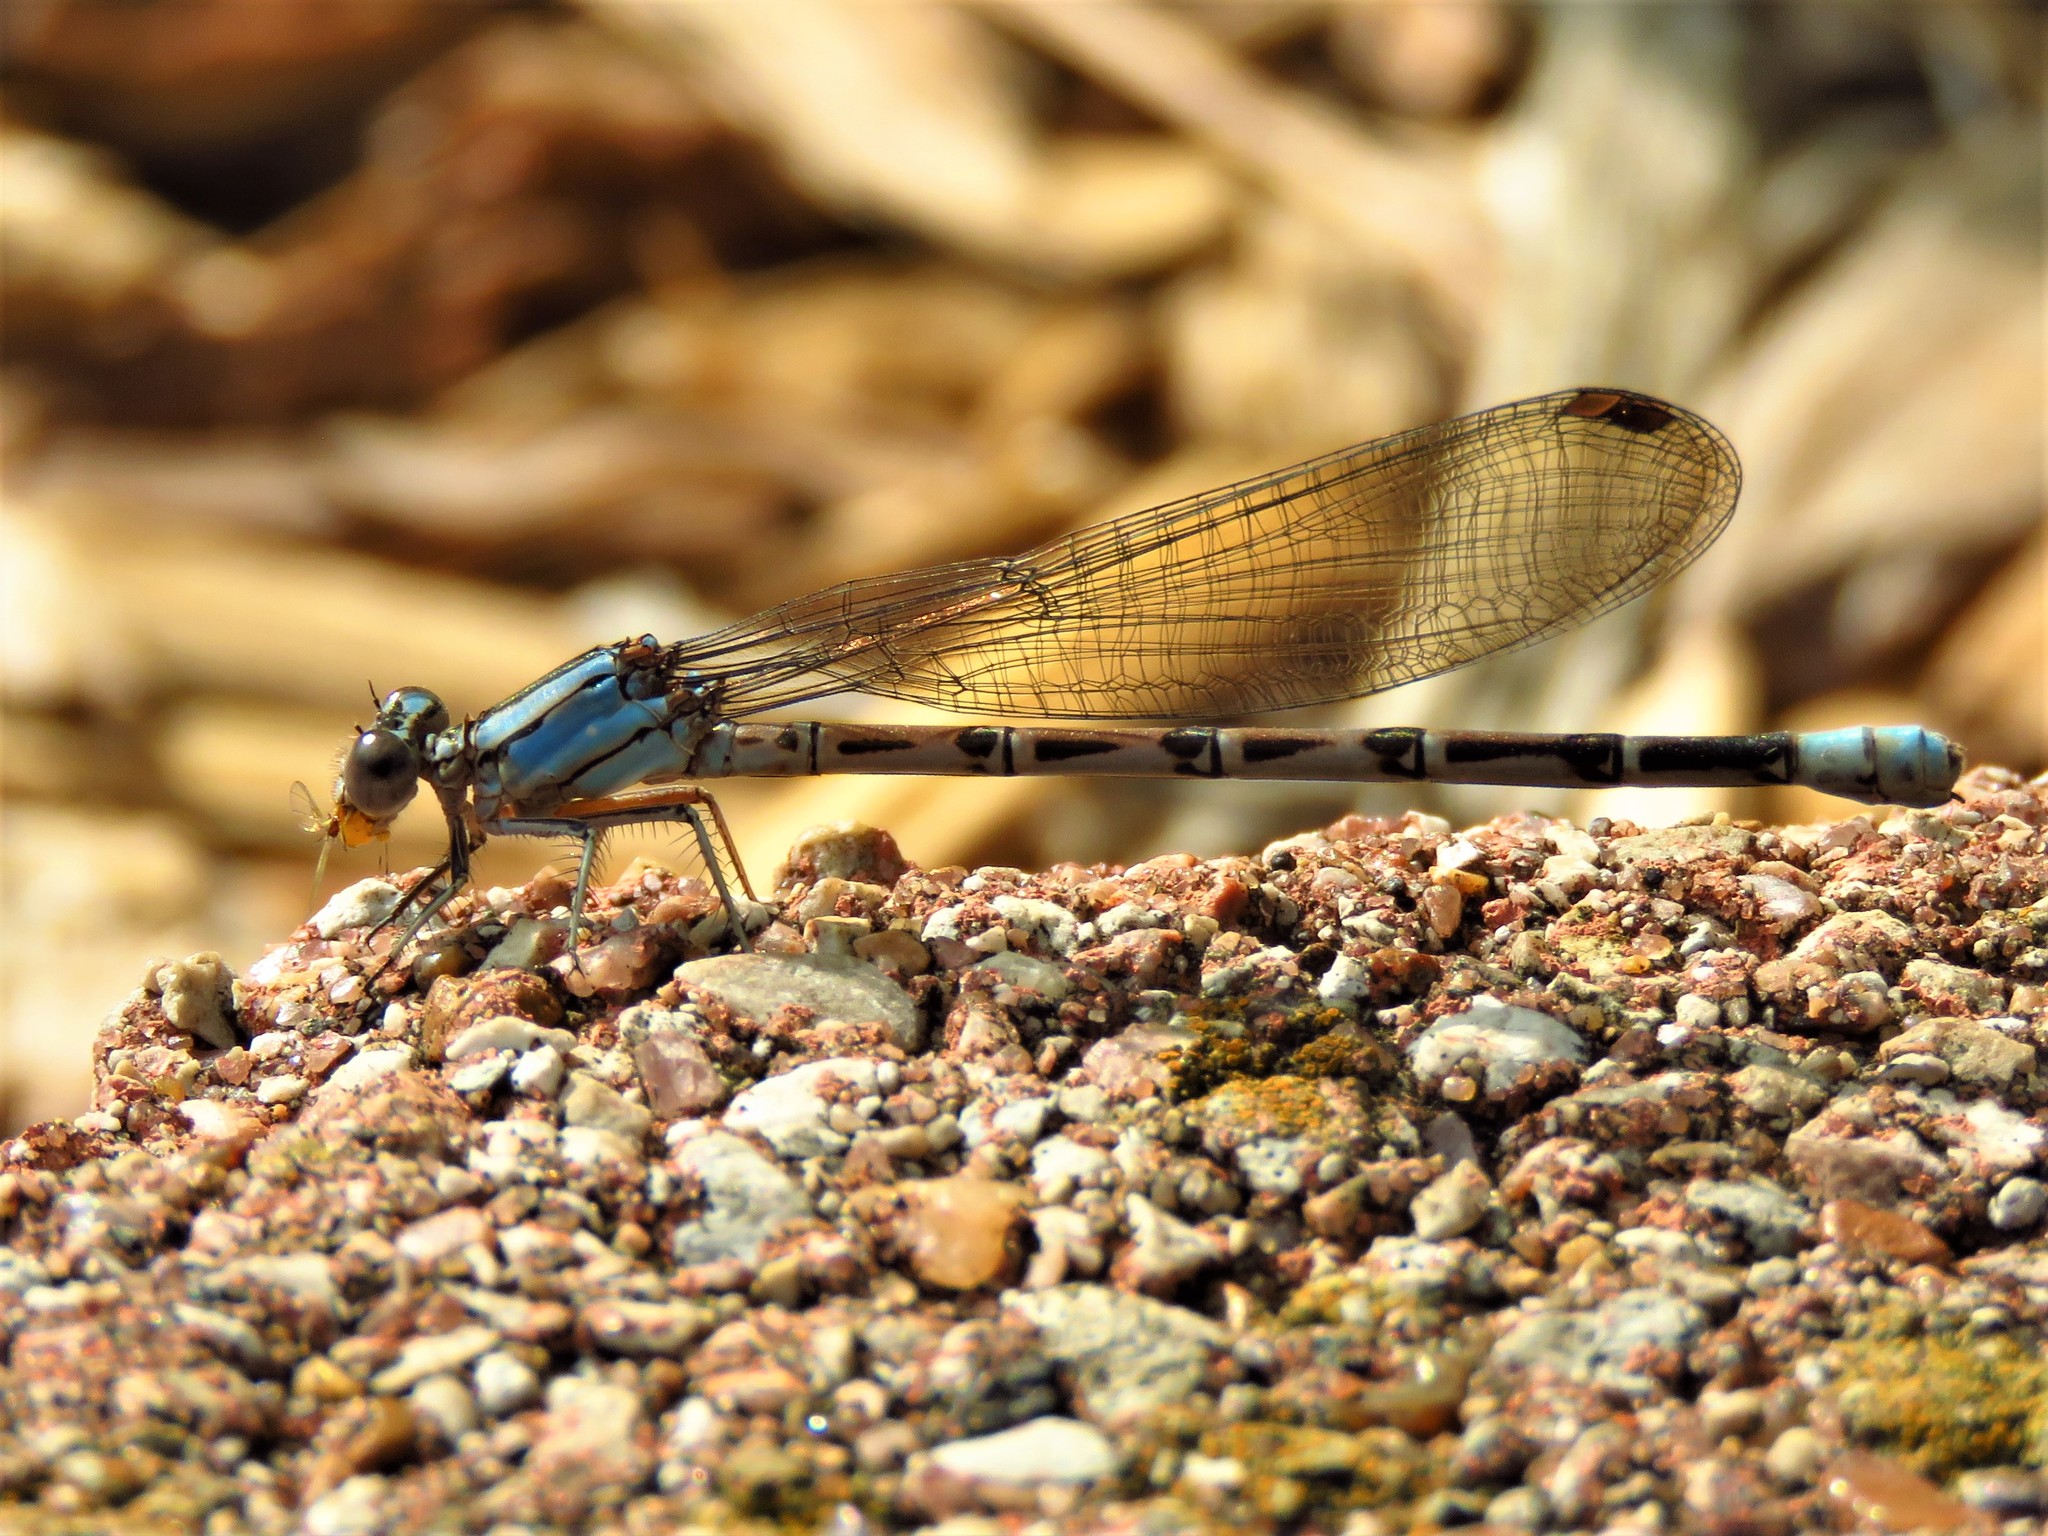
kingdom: Animalia
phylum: Arthropoda
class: Insecta
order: Odonata
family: Coenagrionidae
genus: Argia
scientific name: Argia funebris
